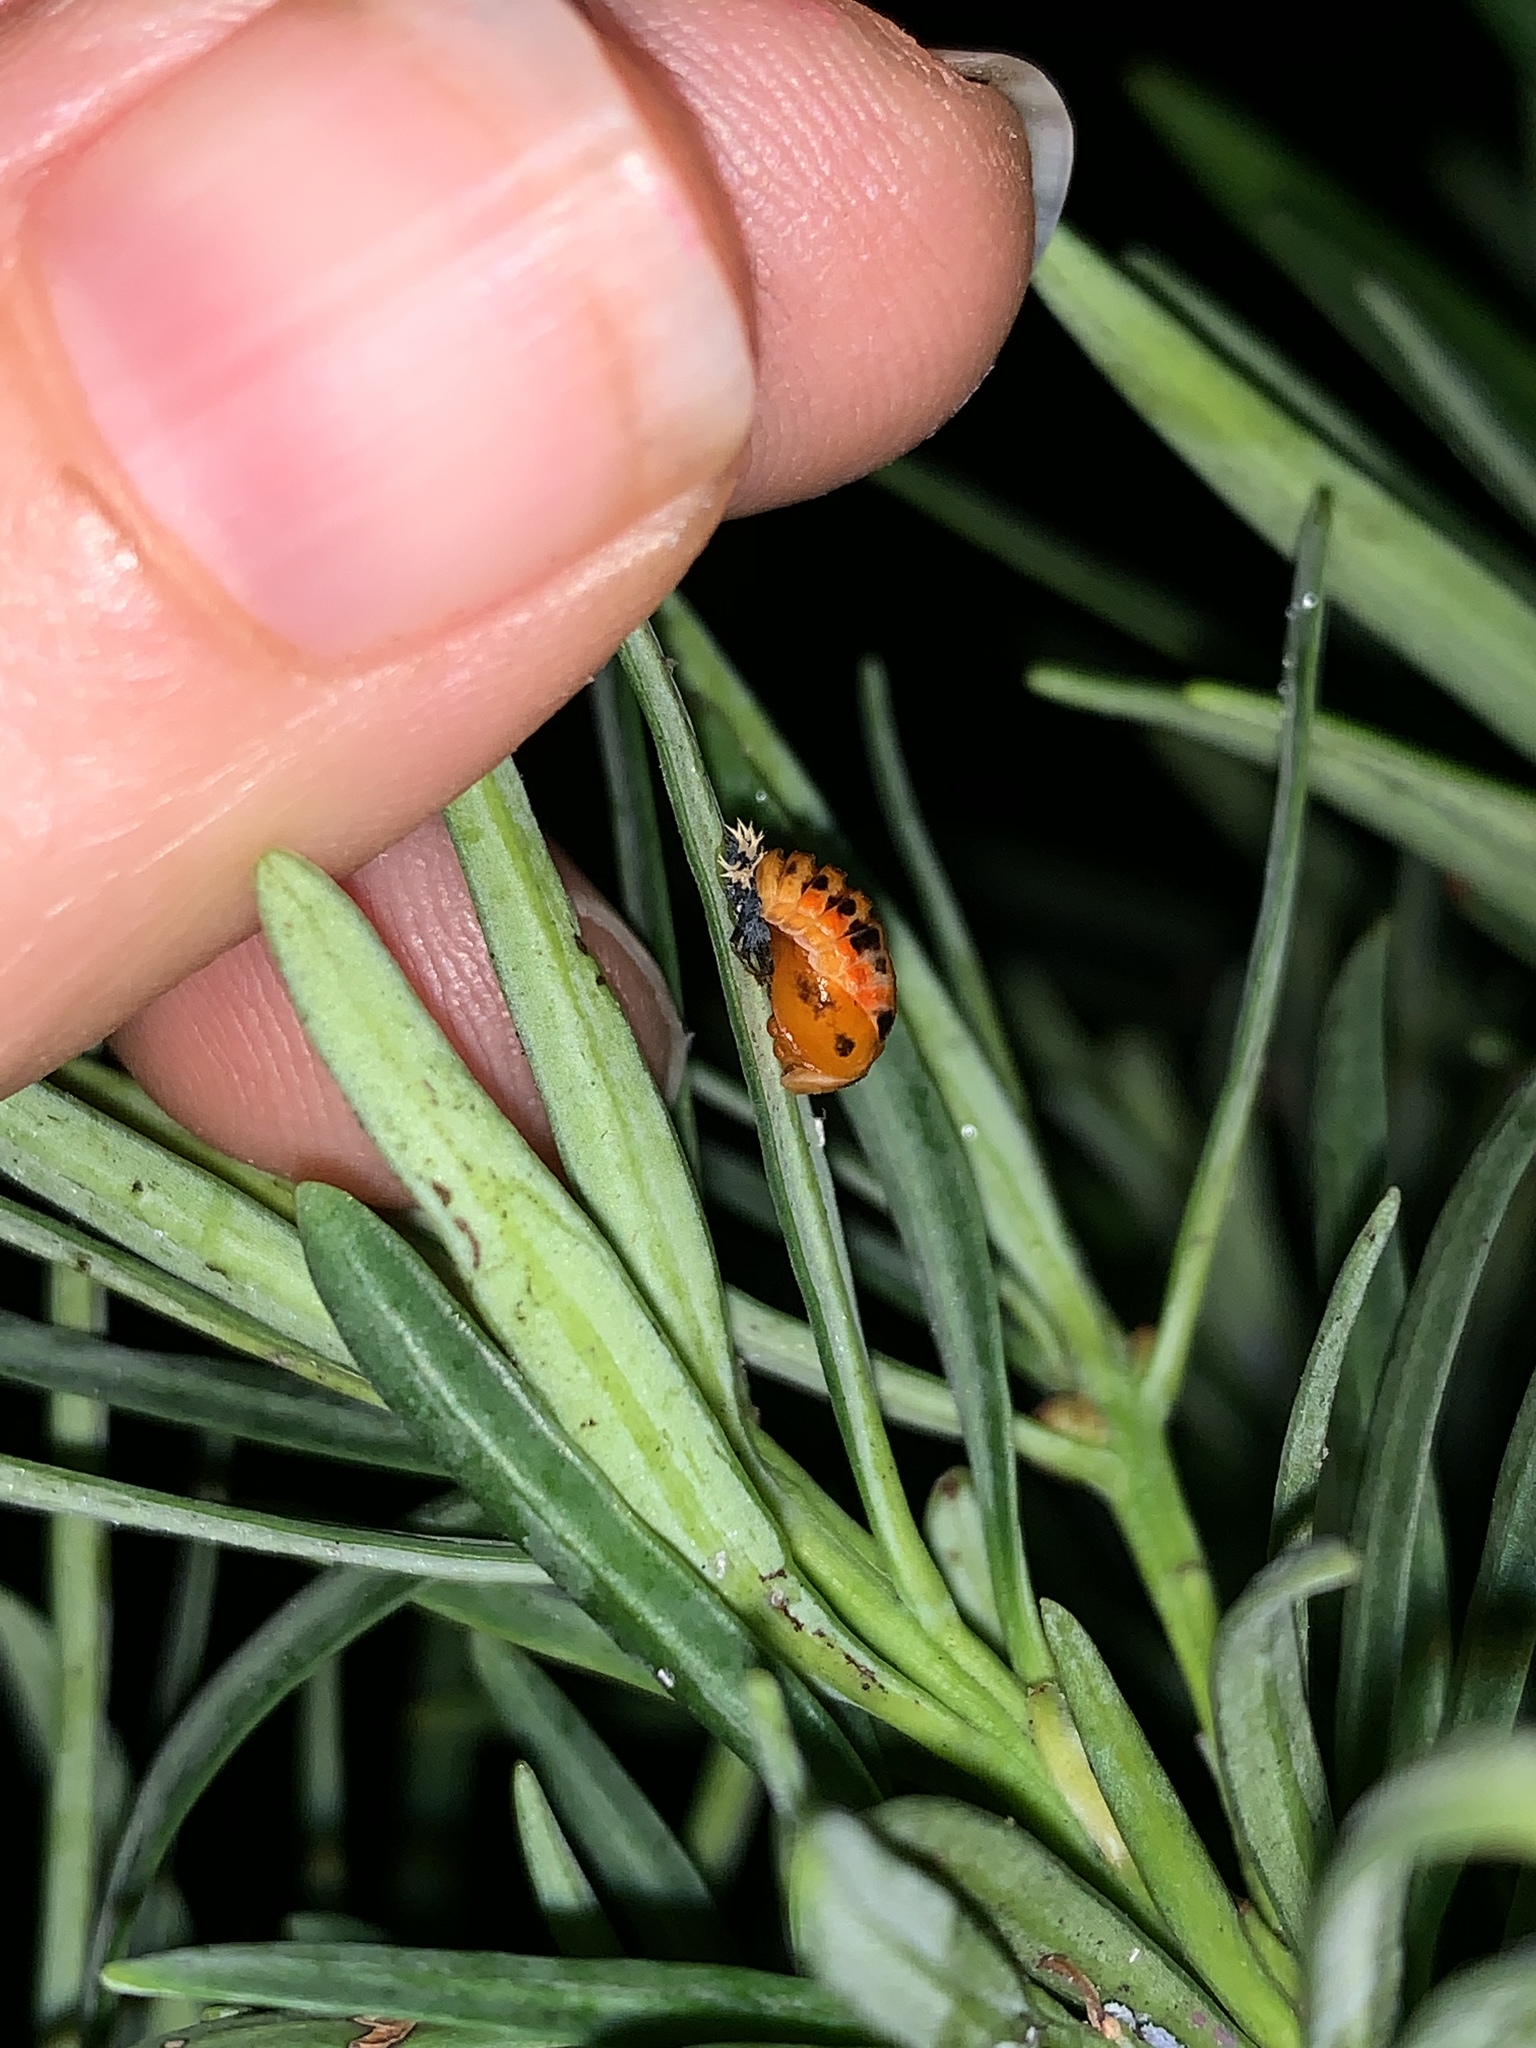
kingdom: Animalia
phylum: Arthropoda
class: Insecta
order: Coleoptera
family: Coccinellidae
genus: Harmonia
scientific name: Harmonia axyridis
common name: Harlequin ladybird
